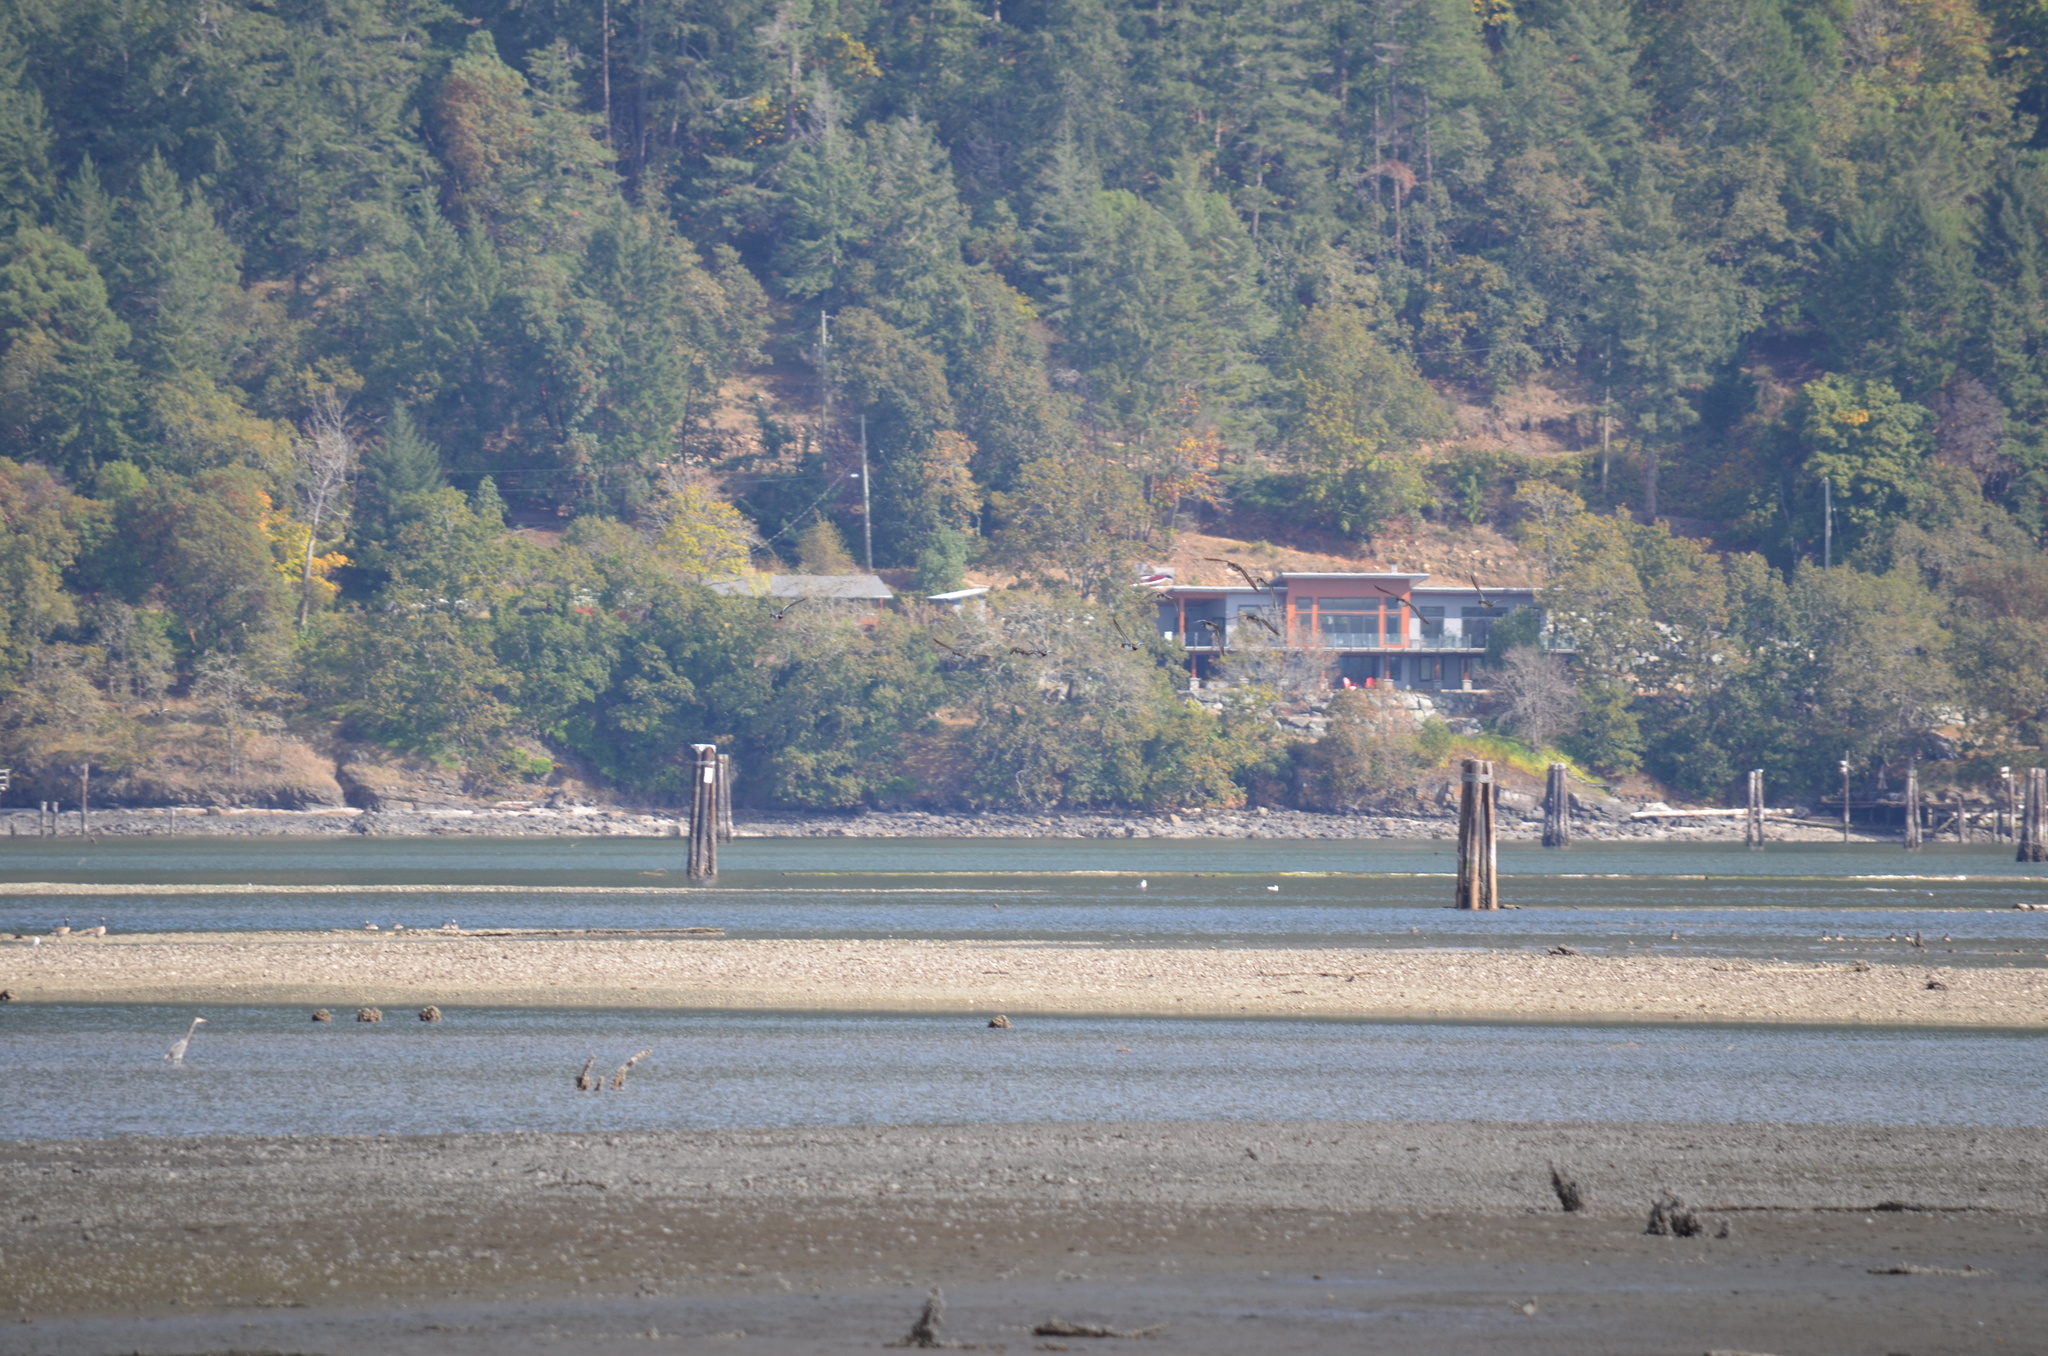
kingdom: Animalia
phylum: Chordata
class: Aves
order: Pelecaniformes
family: Ardeidae
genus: Ardea
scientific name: Ardea herodias
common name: Great blue heron
